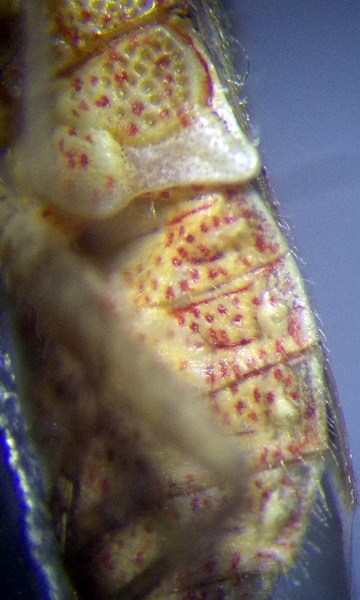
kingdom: Animalia
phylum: Arthropoda
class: Insecta
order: Hemiptera
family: Rhopalidae
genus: Rhopalus
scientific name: Rhopalus parumpunctatus
